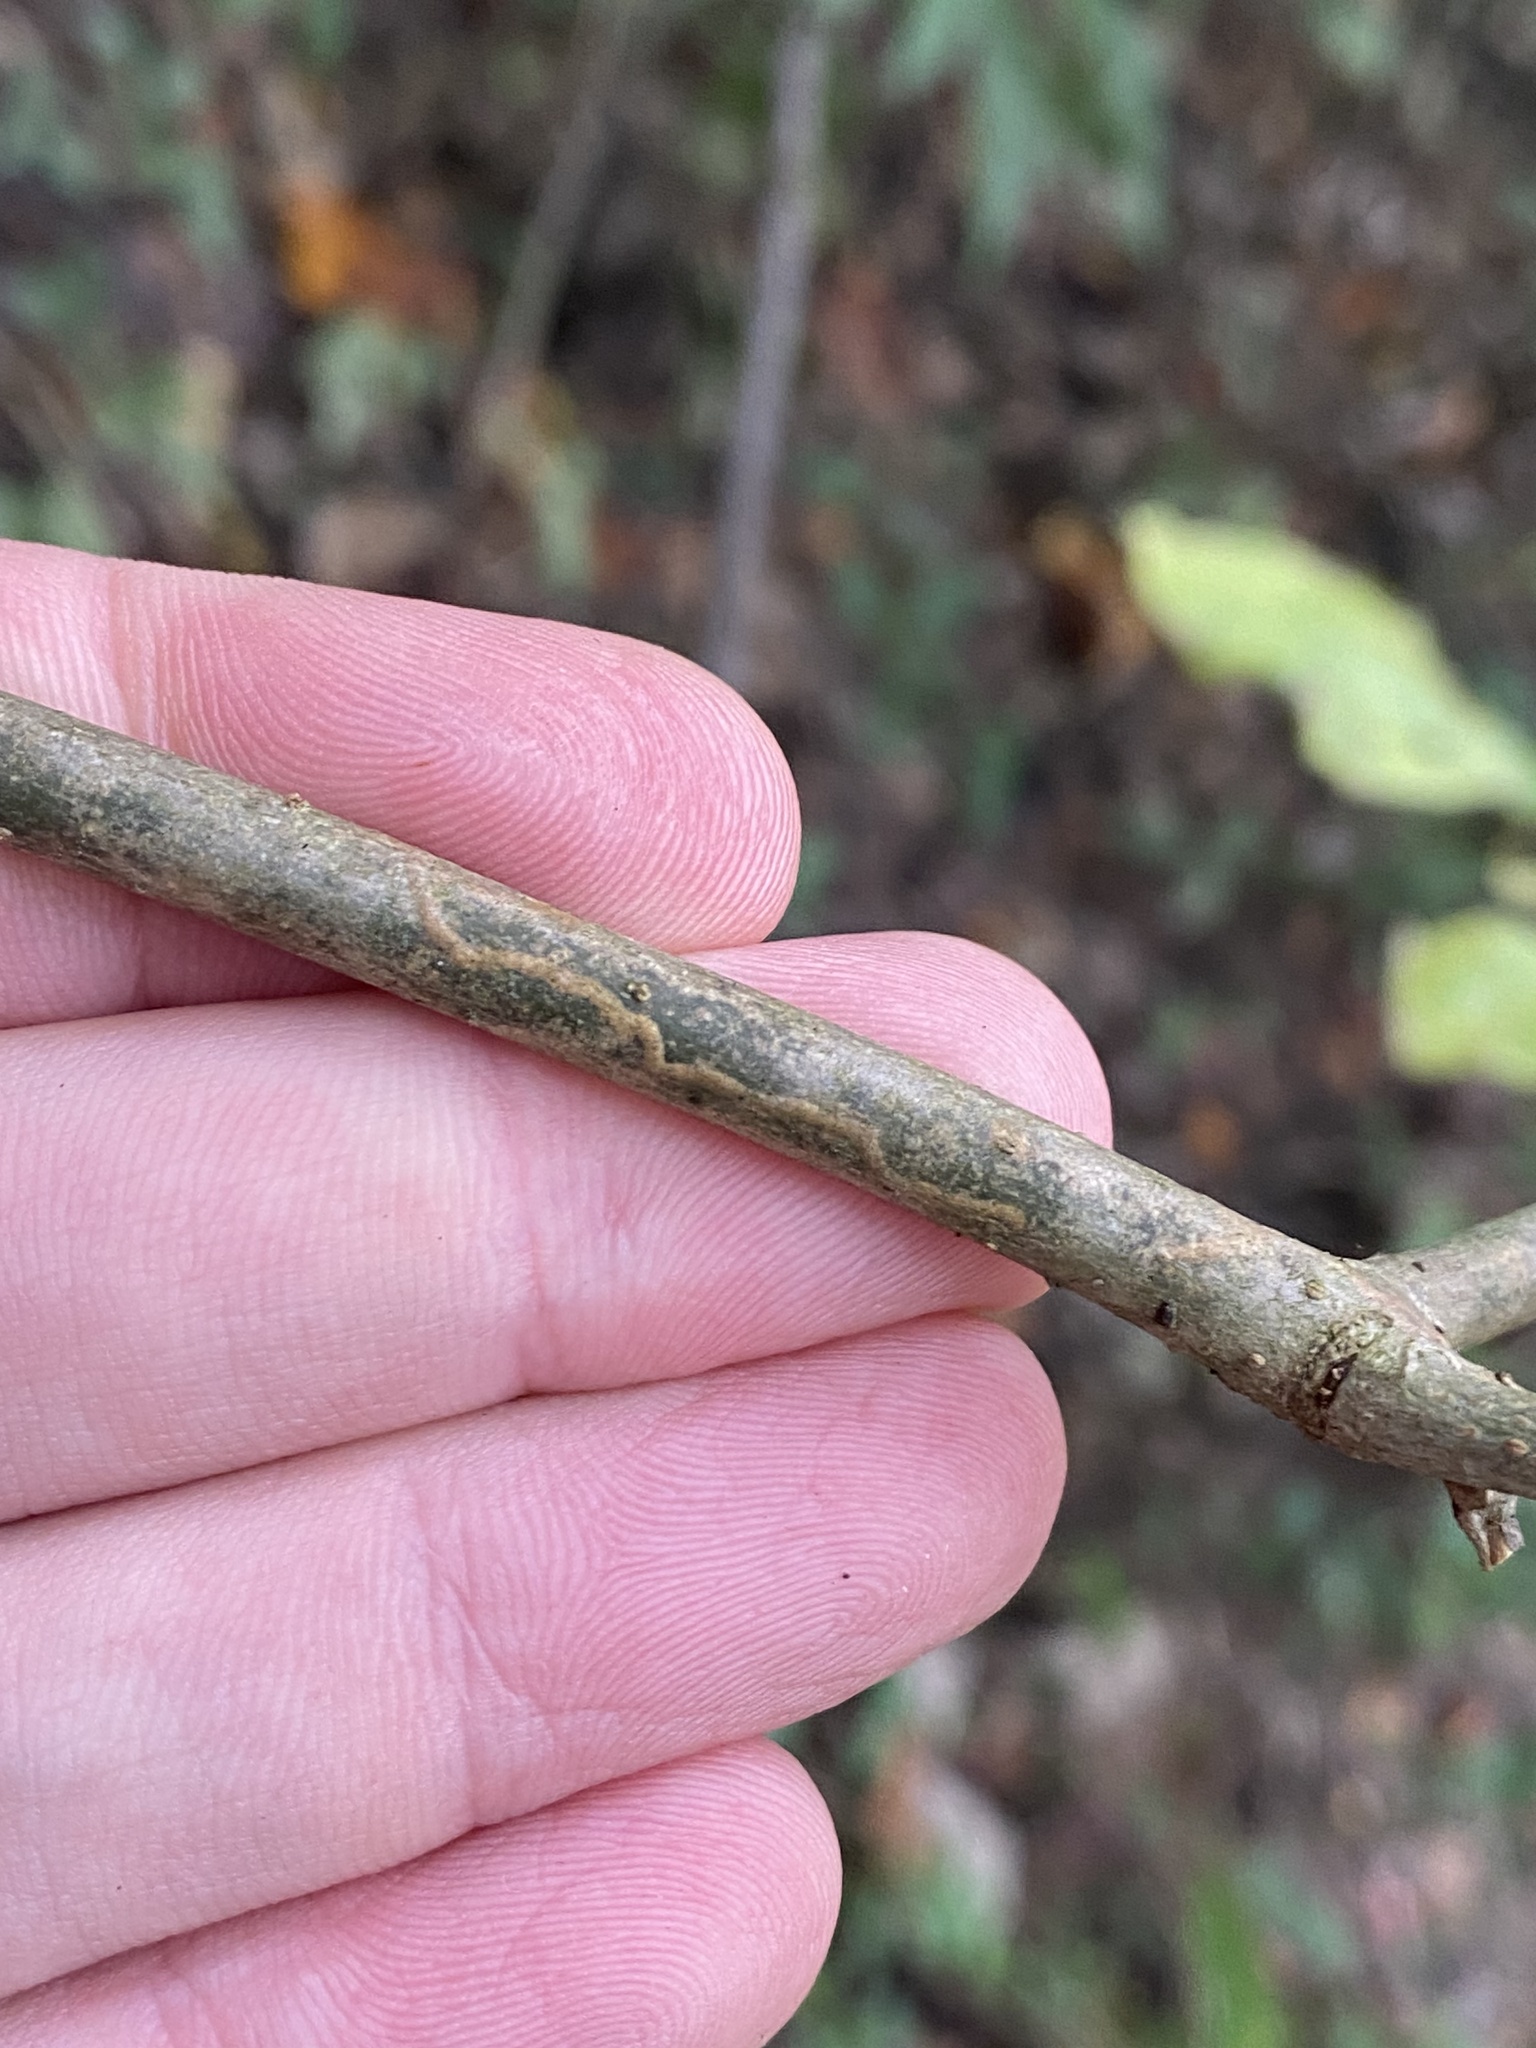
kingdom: Animalia
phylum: Arthropoda
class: Insecta
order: Lepidoptera
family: Gracillariidae
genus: Marmara
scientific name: Marmara fraxinicola
